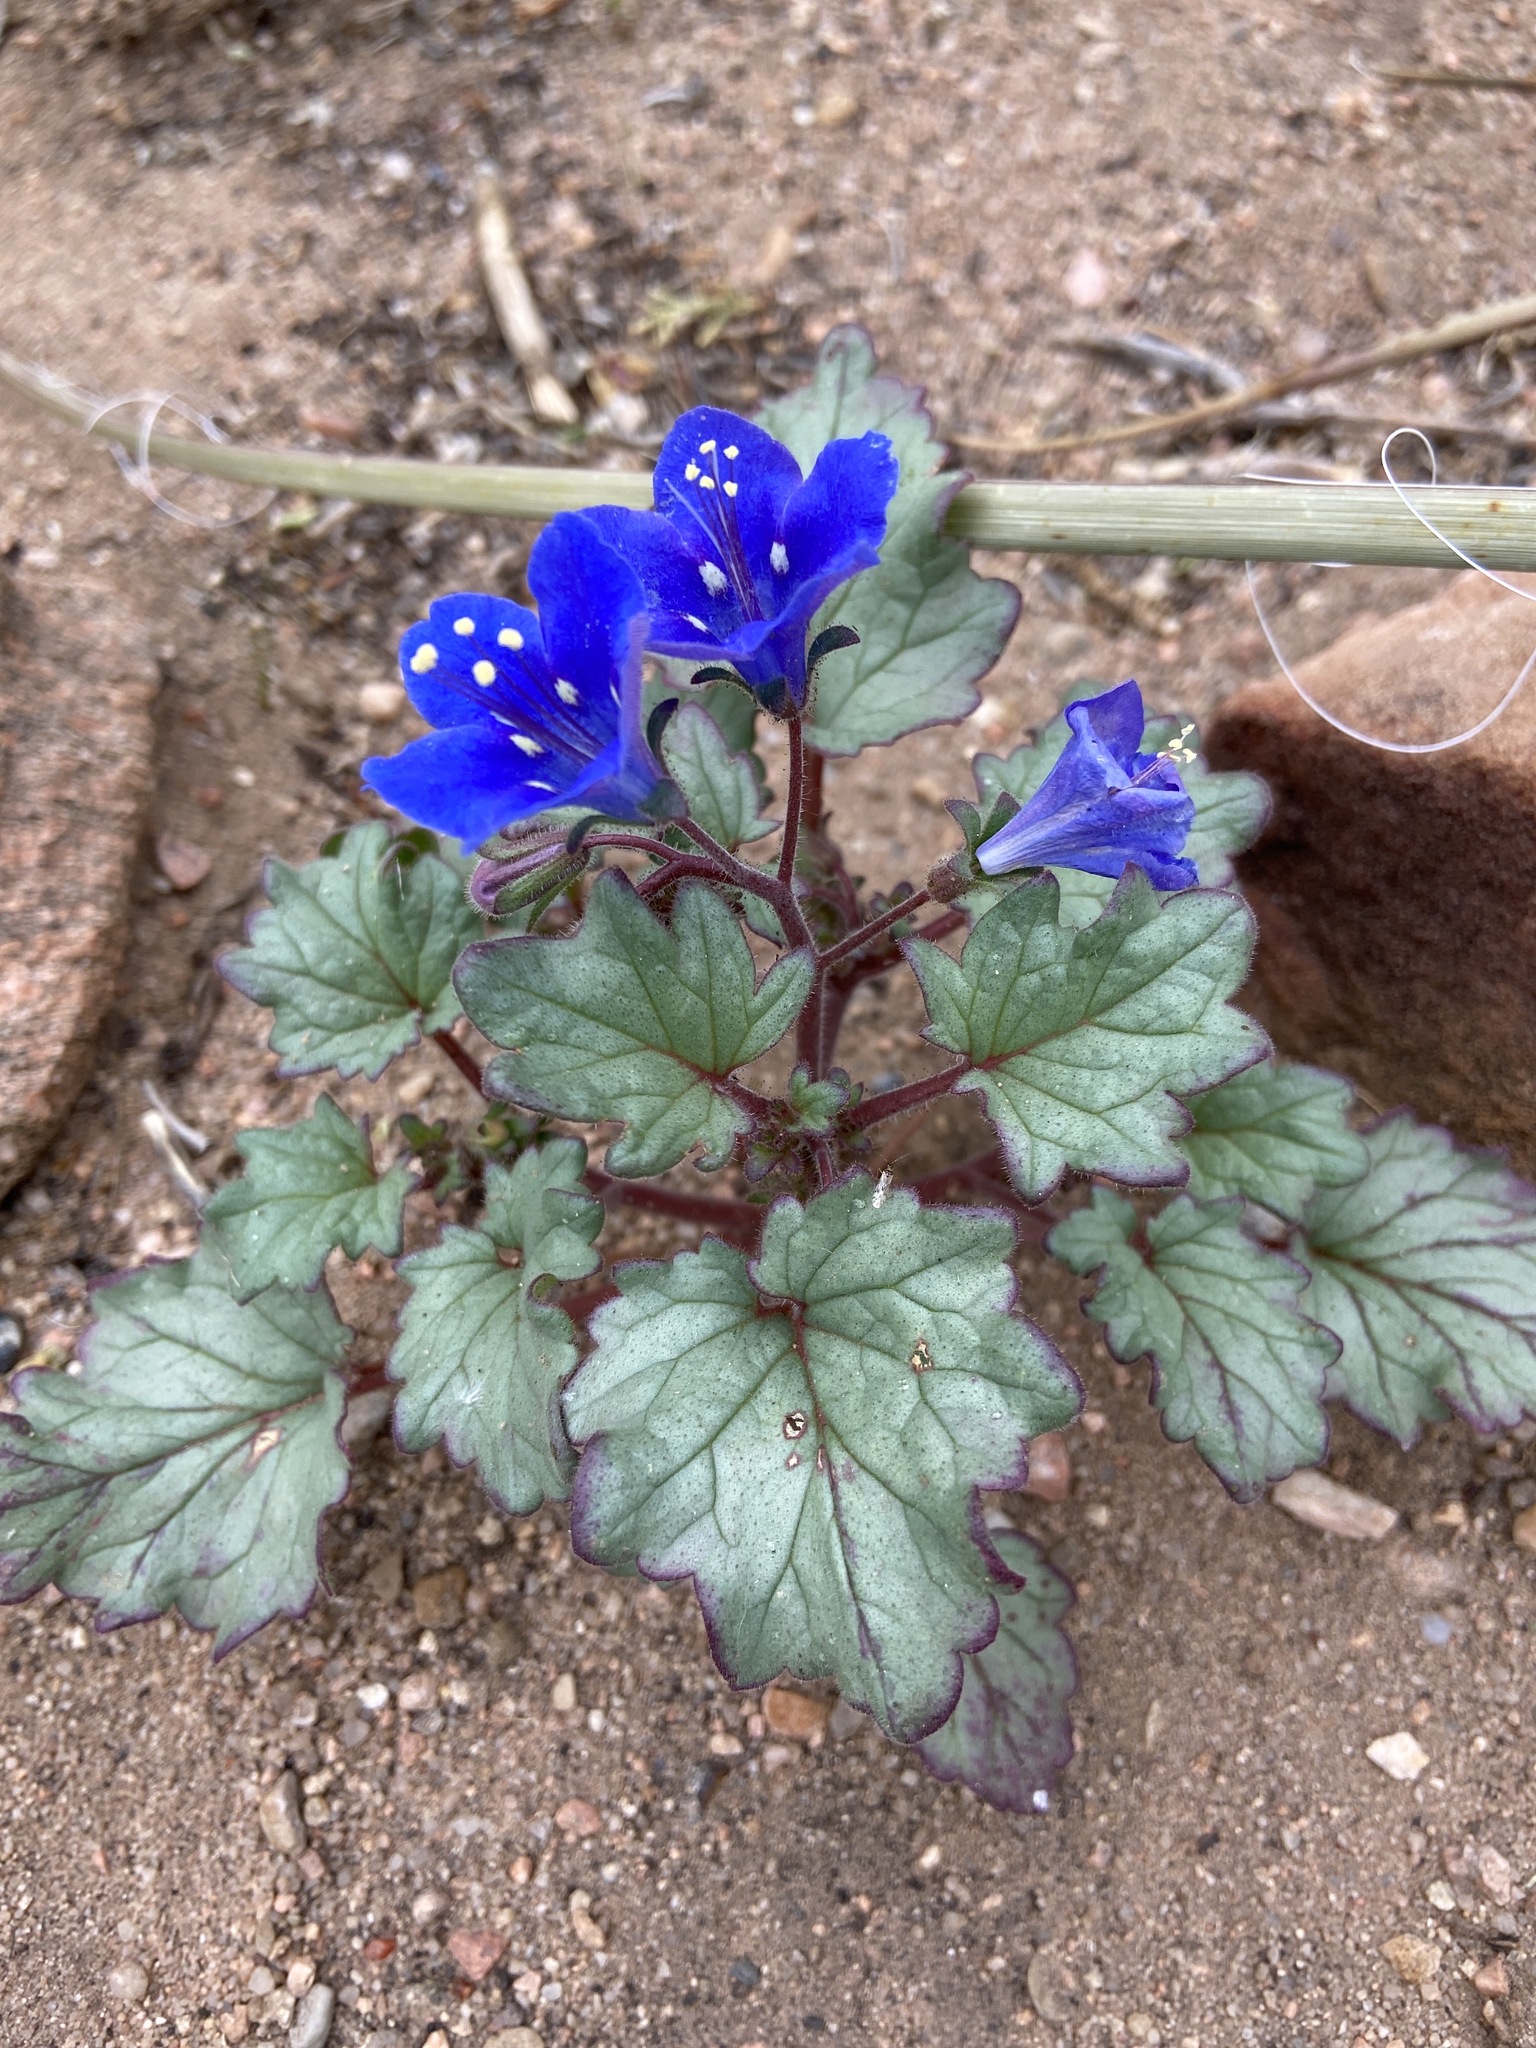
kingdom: Plantae
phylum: Tracheophyta
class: Magnoliopsida
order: Boraginales
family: Hydrophyllaceae
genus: Phacelia
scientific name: Phacelia campanularia
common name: California bluebell
